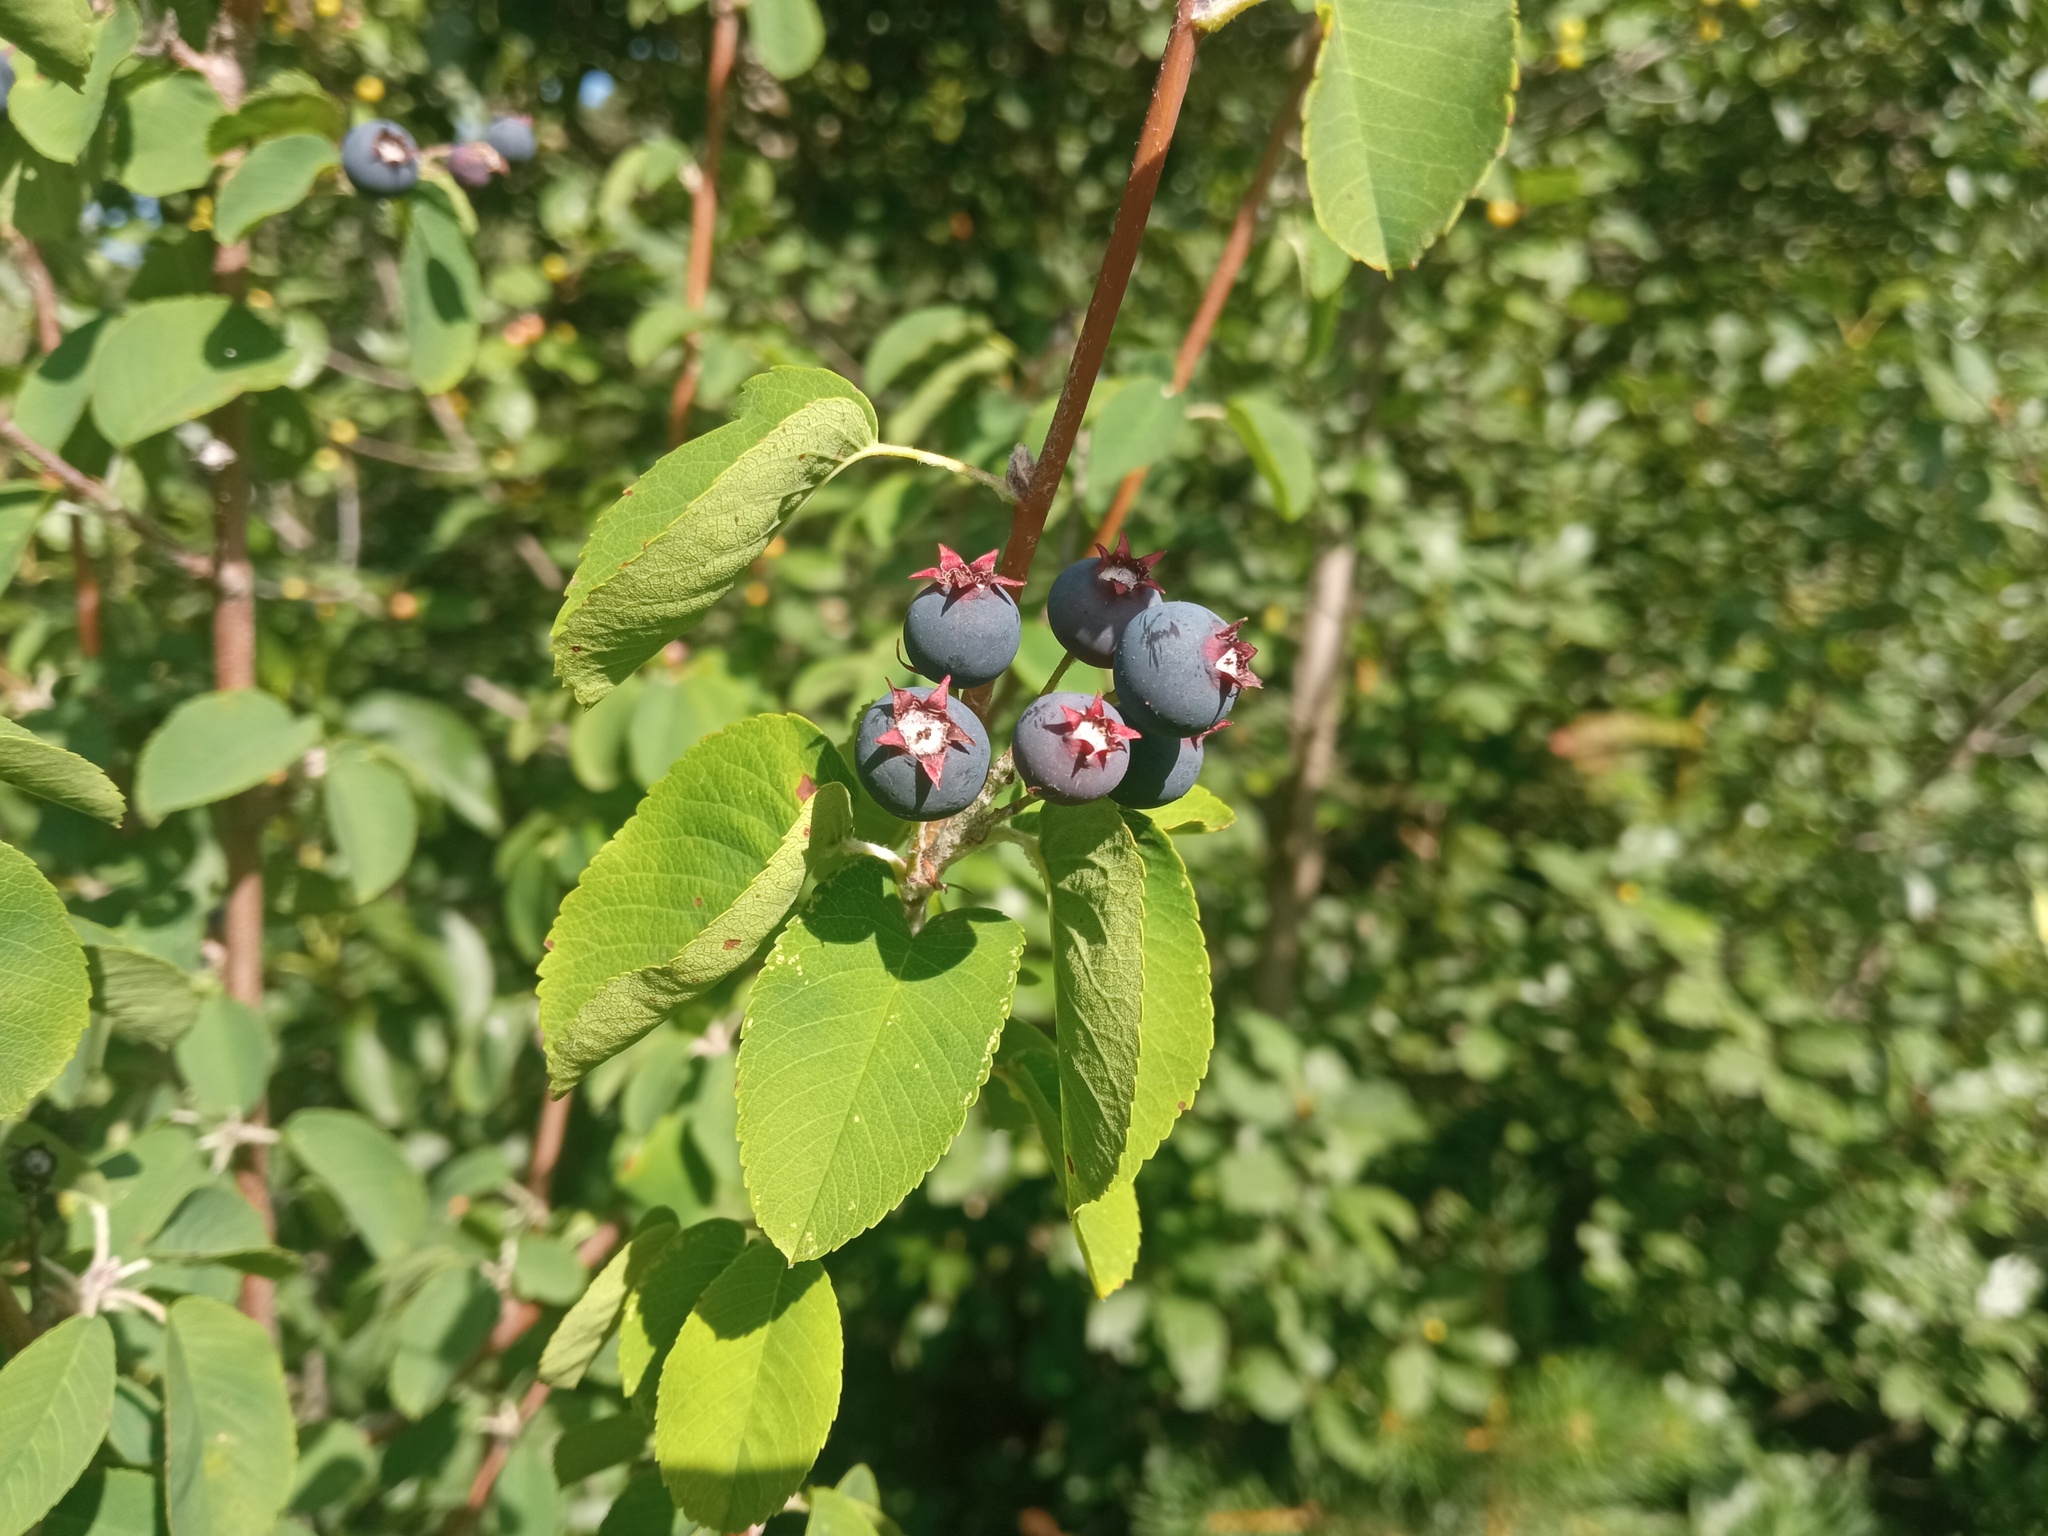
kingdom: Plantae
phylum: Tracheophyta
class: Magnoliopsida
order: Rosales
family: Rosaceae
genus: Amelanchier
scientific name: Amelanchier ovalis
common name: Serviceberry
